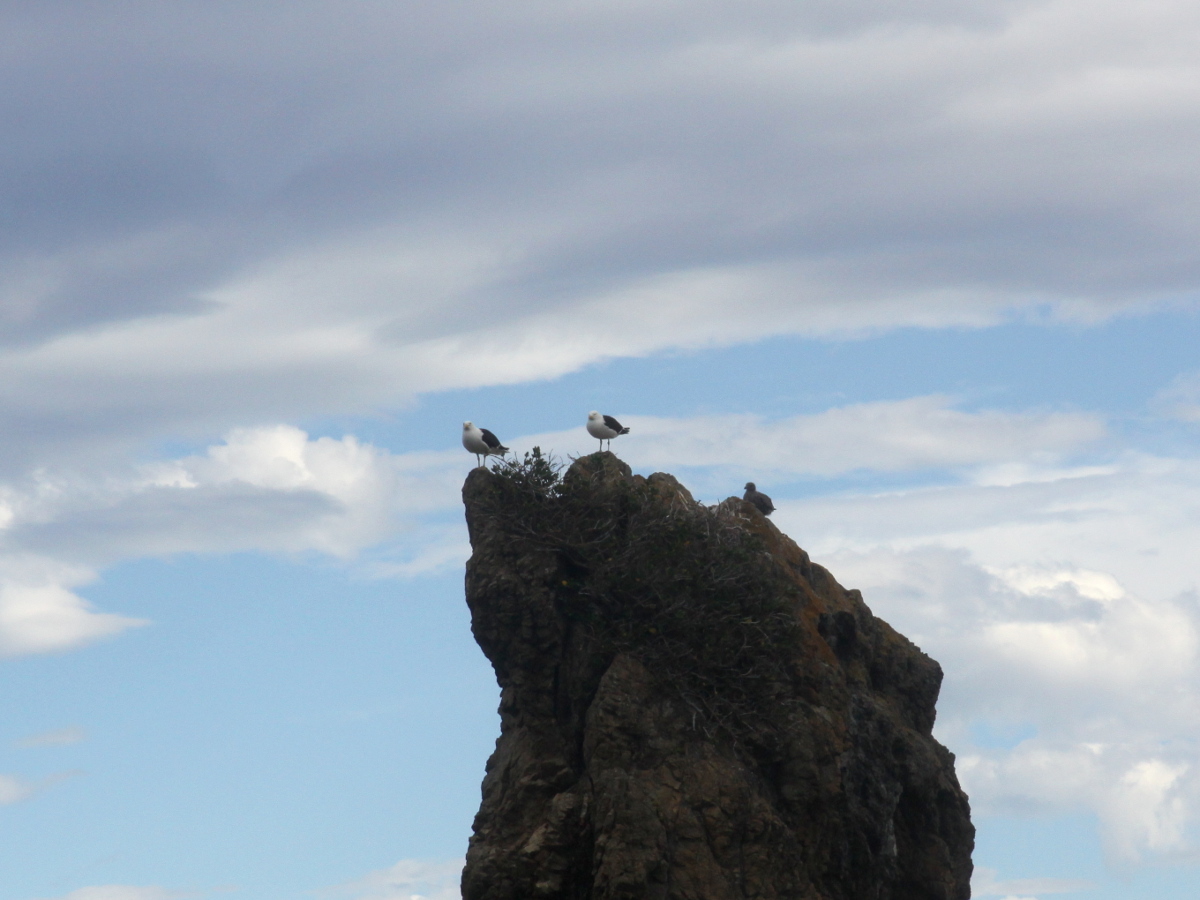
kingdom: Animalia
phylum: Chordata
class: Aves
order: Charadriiformes
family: Laridae
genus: Larus
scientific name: Larus dominicanus
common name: Kelp gull
